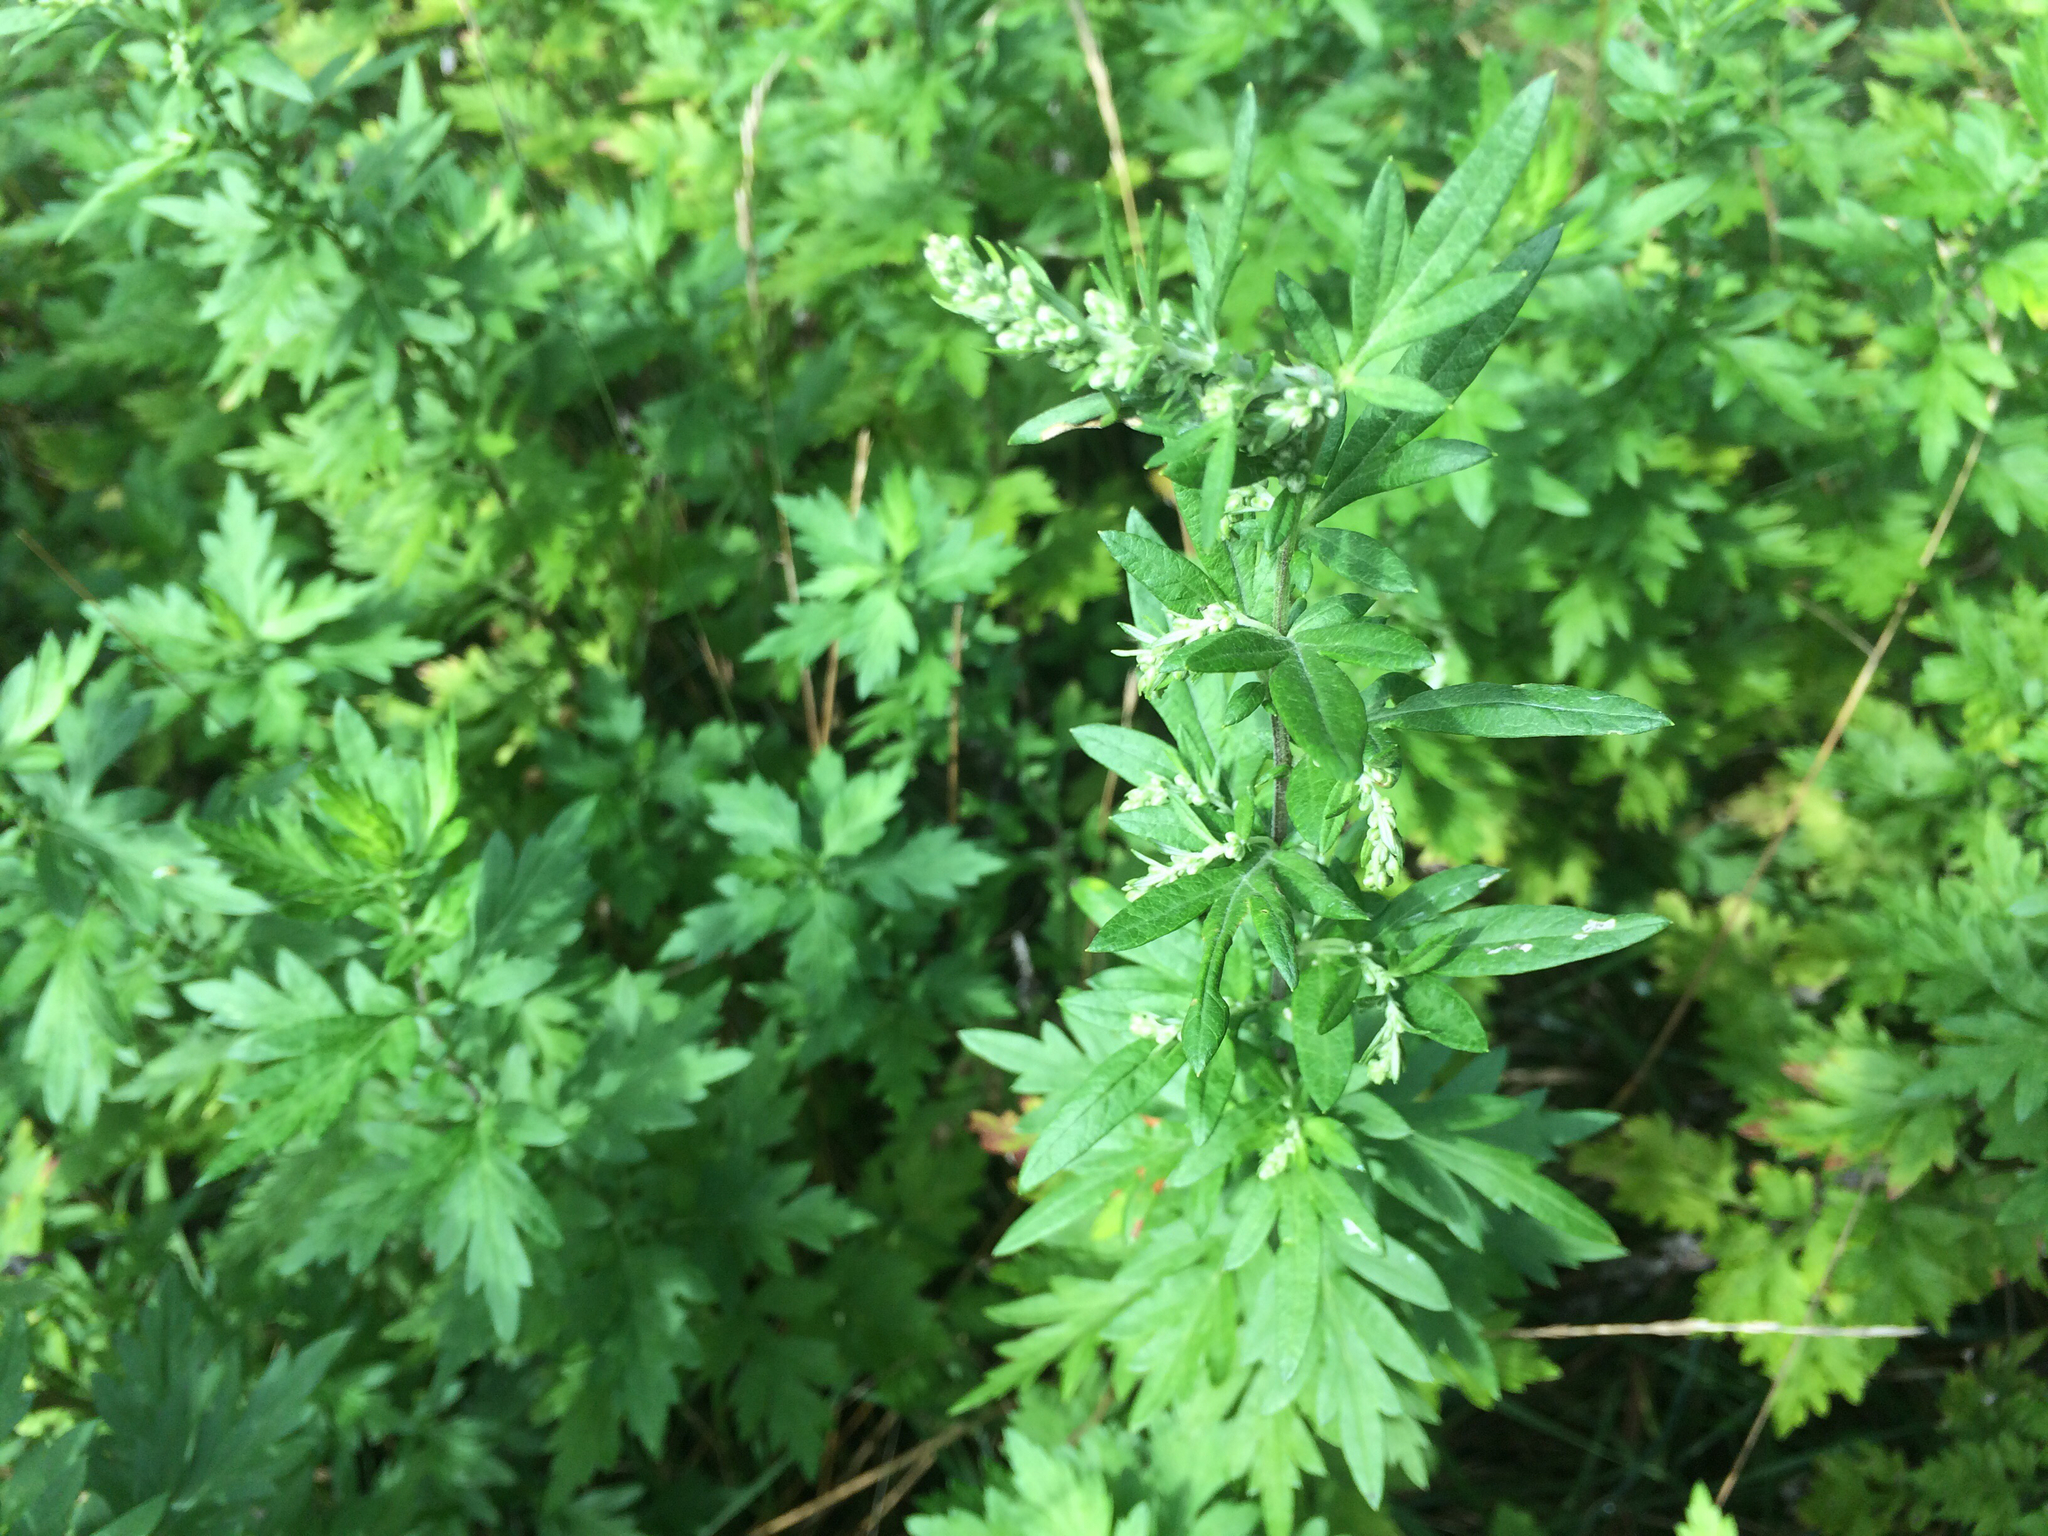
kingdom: Plantae
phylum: Tracheophyta
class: Magnoliopsida
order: Asterales
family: Asteraceae
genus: Artemisia
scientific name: Artemisia vulgaris
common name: Mugwort
